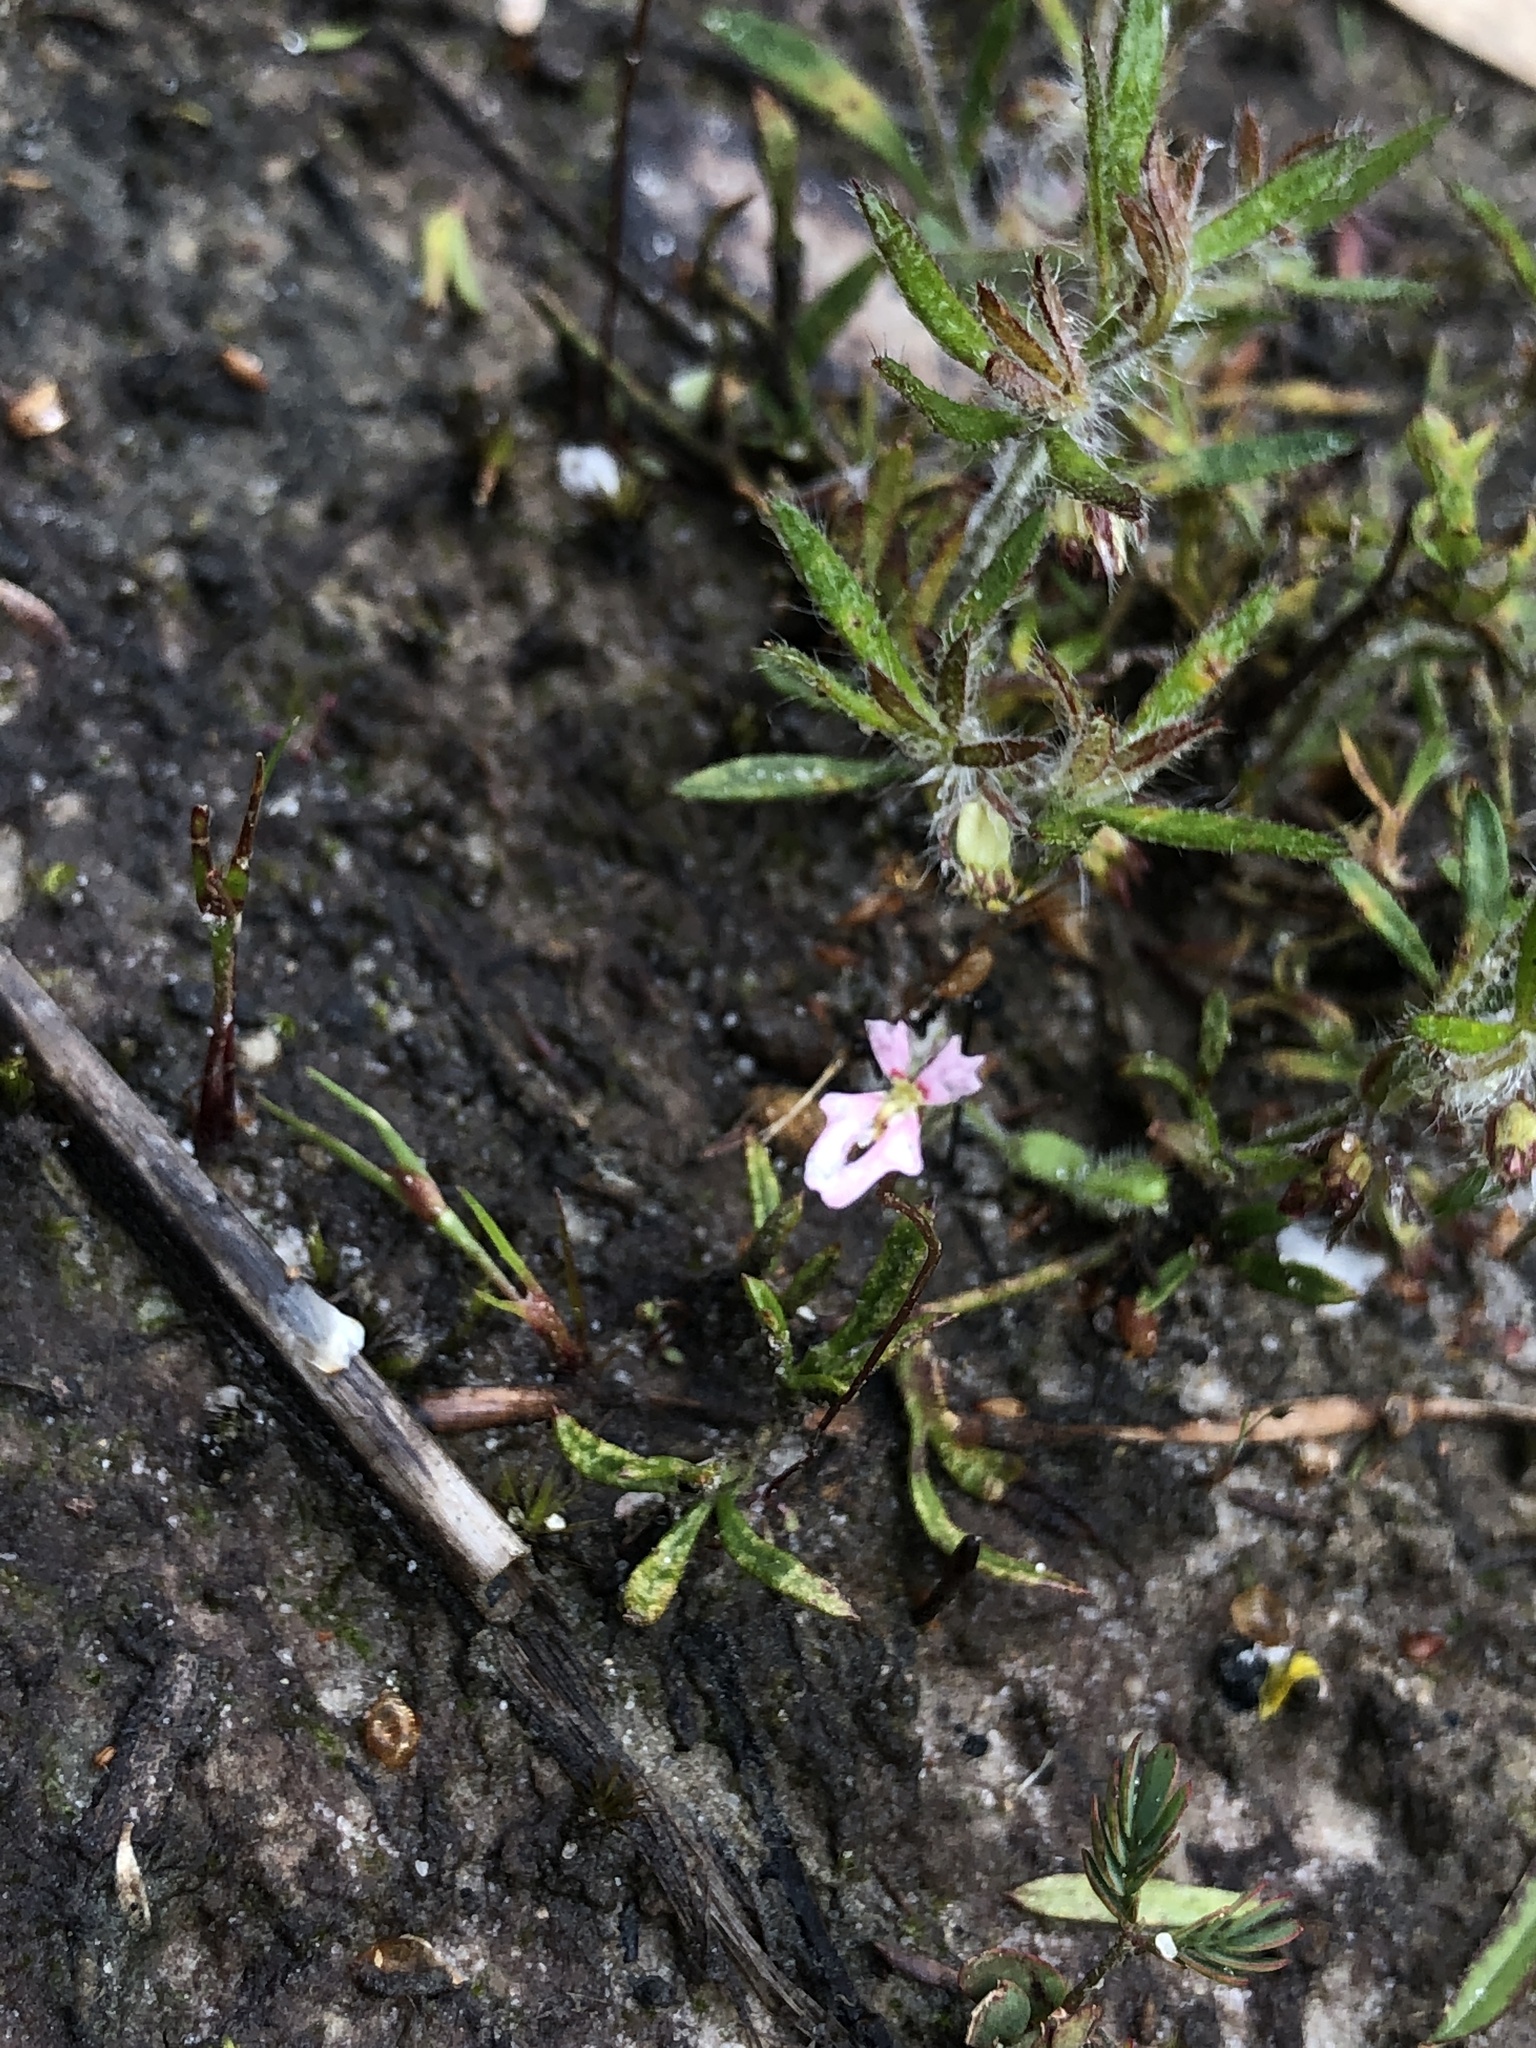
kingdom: Plantae
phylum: Tracheophyta
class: Magnoliopsida
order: Asterales
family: Stylidiaceae
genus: Stylidium
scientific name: Stylidium calcaratum
